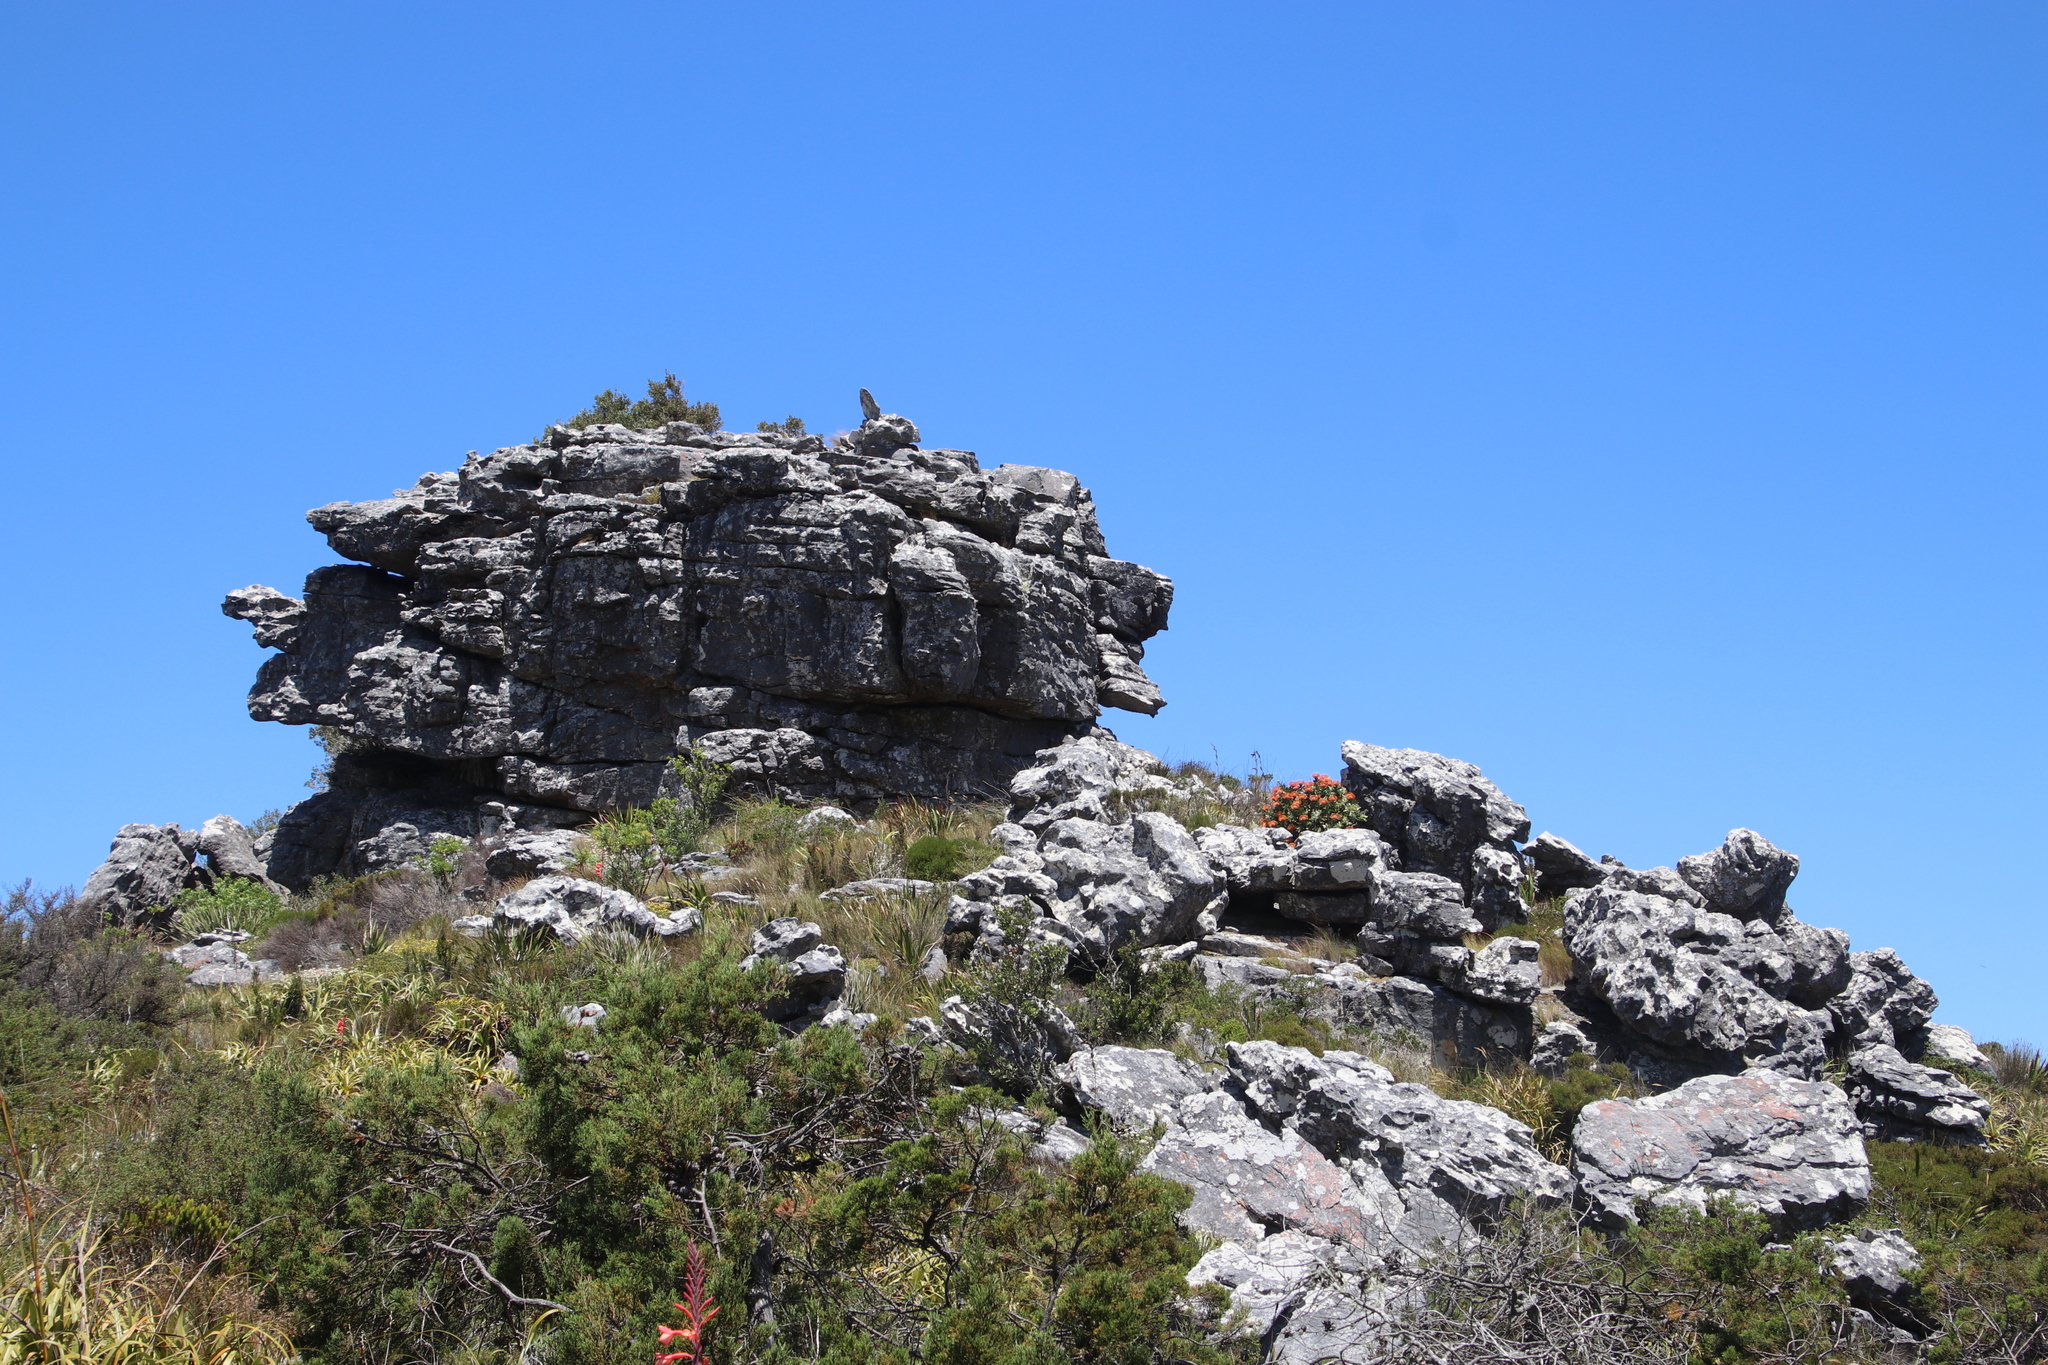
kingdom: Plantae
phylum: Tracheophyta
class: Magnoliopsida
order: Proteales
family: Proteaceae
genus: Leucospermum
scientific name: Leucospermum cordifolium
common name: Red pincushion-protea
